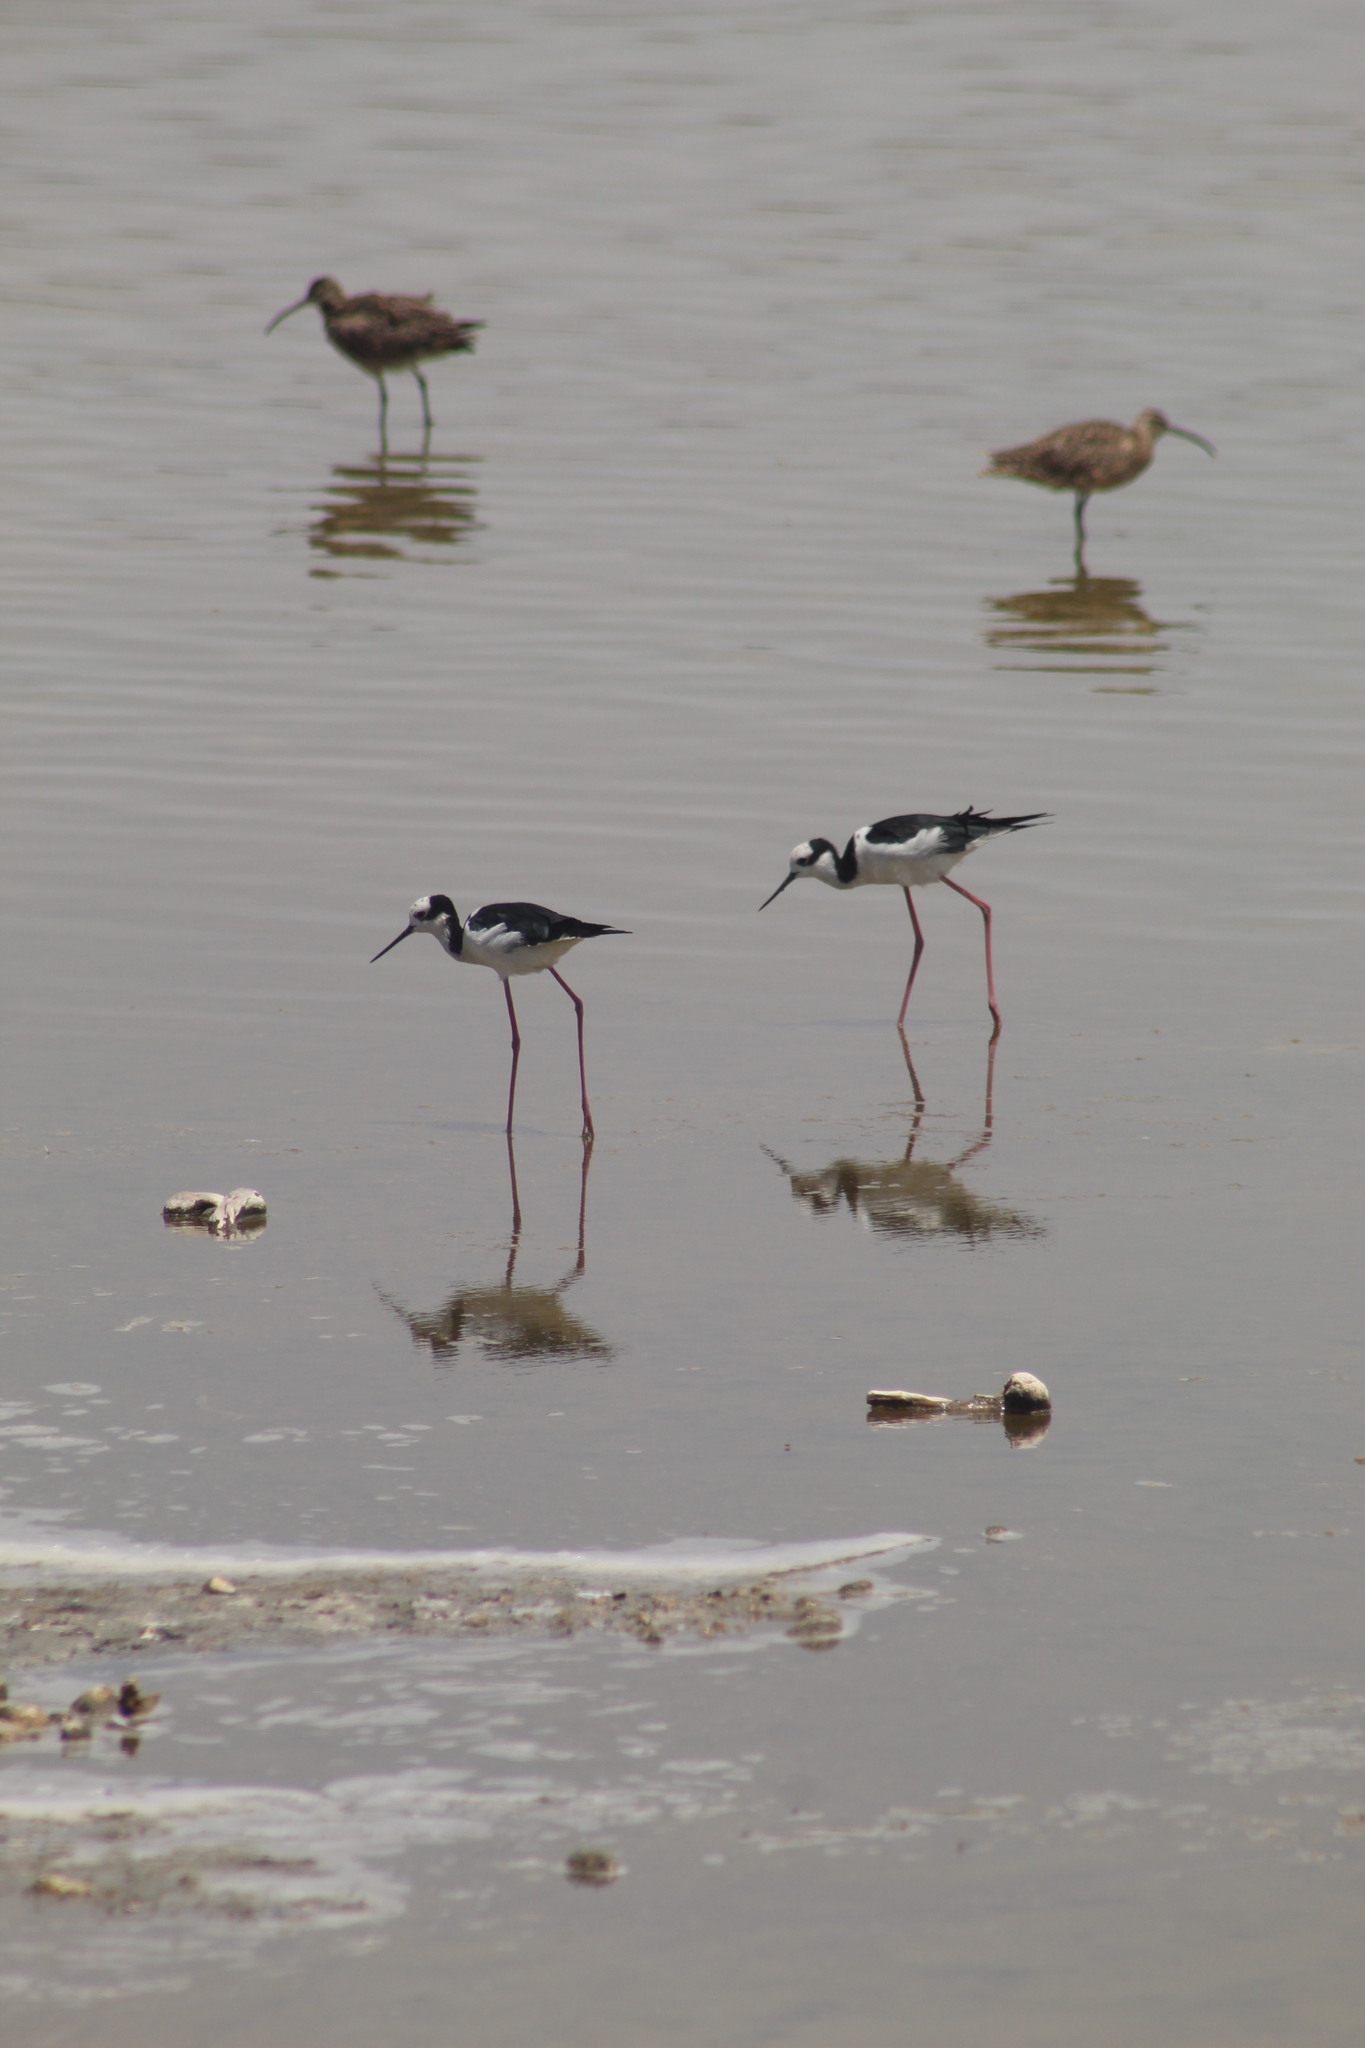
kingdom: Animalia
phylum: Chordata
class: Aves
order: Charadriiformes
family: Recurvirostridae
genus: Himantopus
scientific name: Himantopus mexicanus
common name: Black-necked stilt
